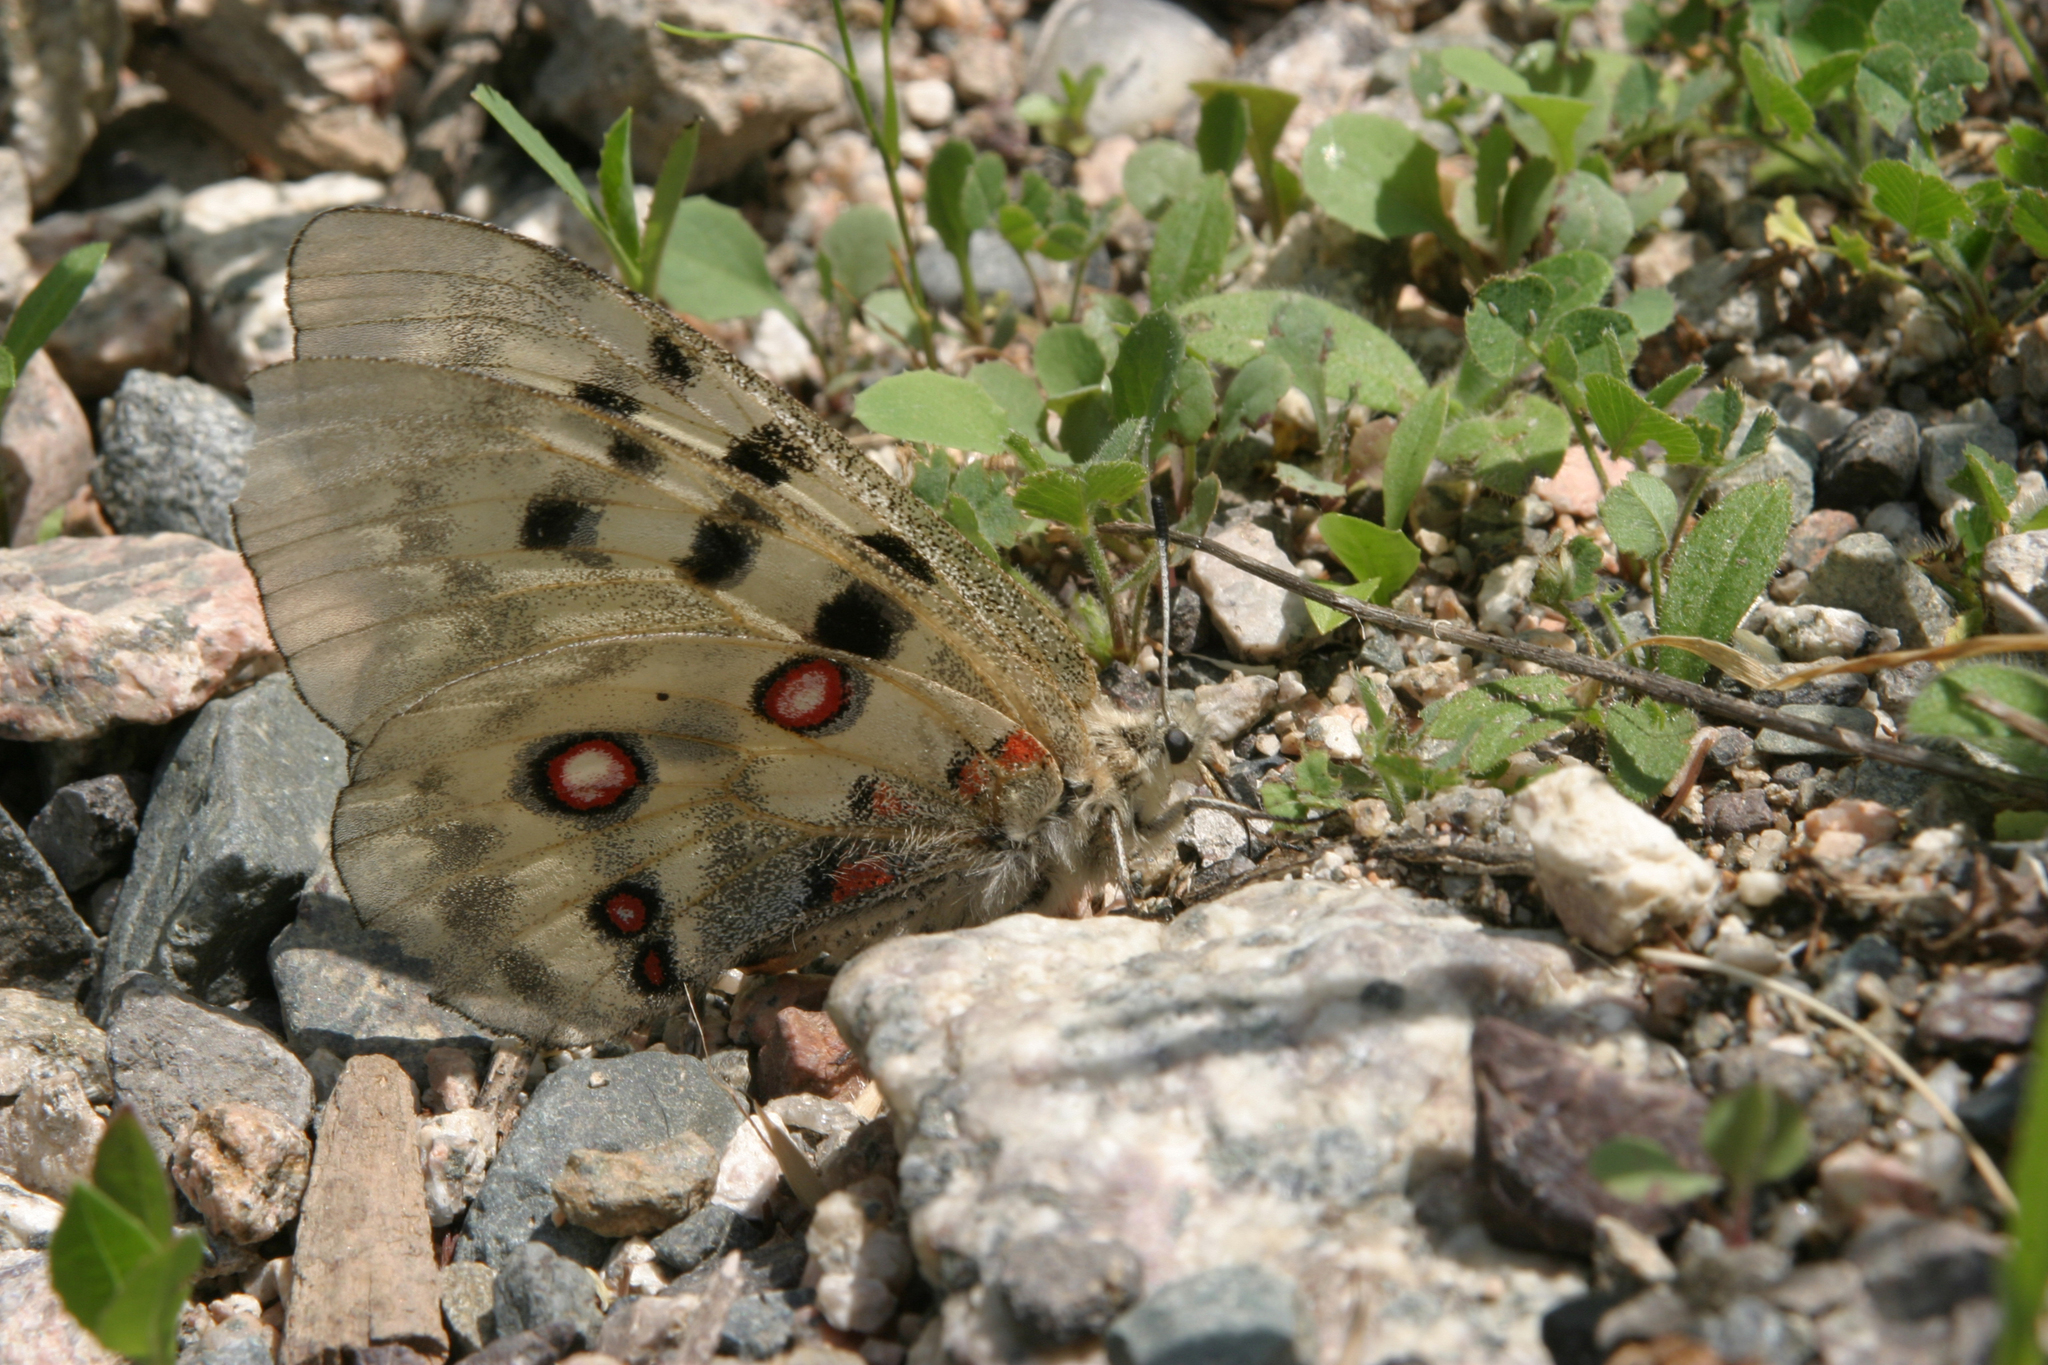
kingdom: Animalia
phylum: Arthropoda
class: Insecta
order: Lepidoptera
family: Papilionidae
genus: Parnassius
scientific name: Parnassius apollo
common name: Apollo
